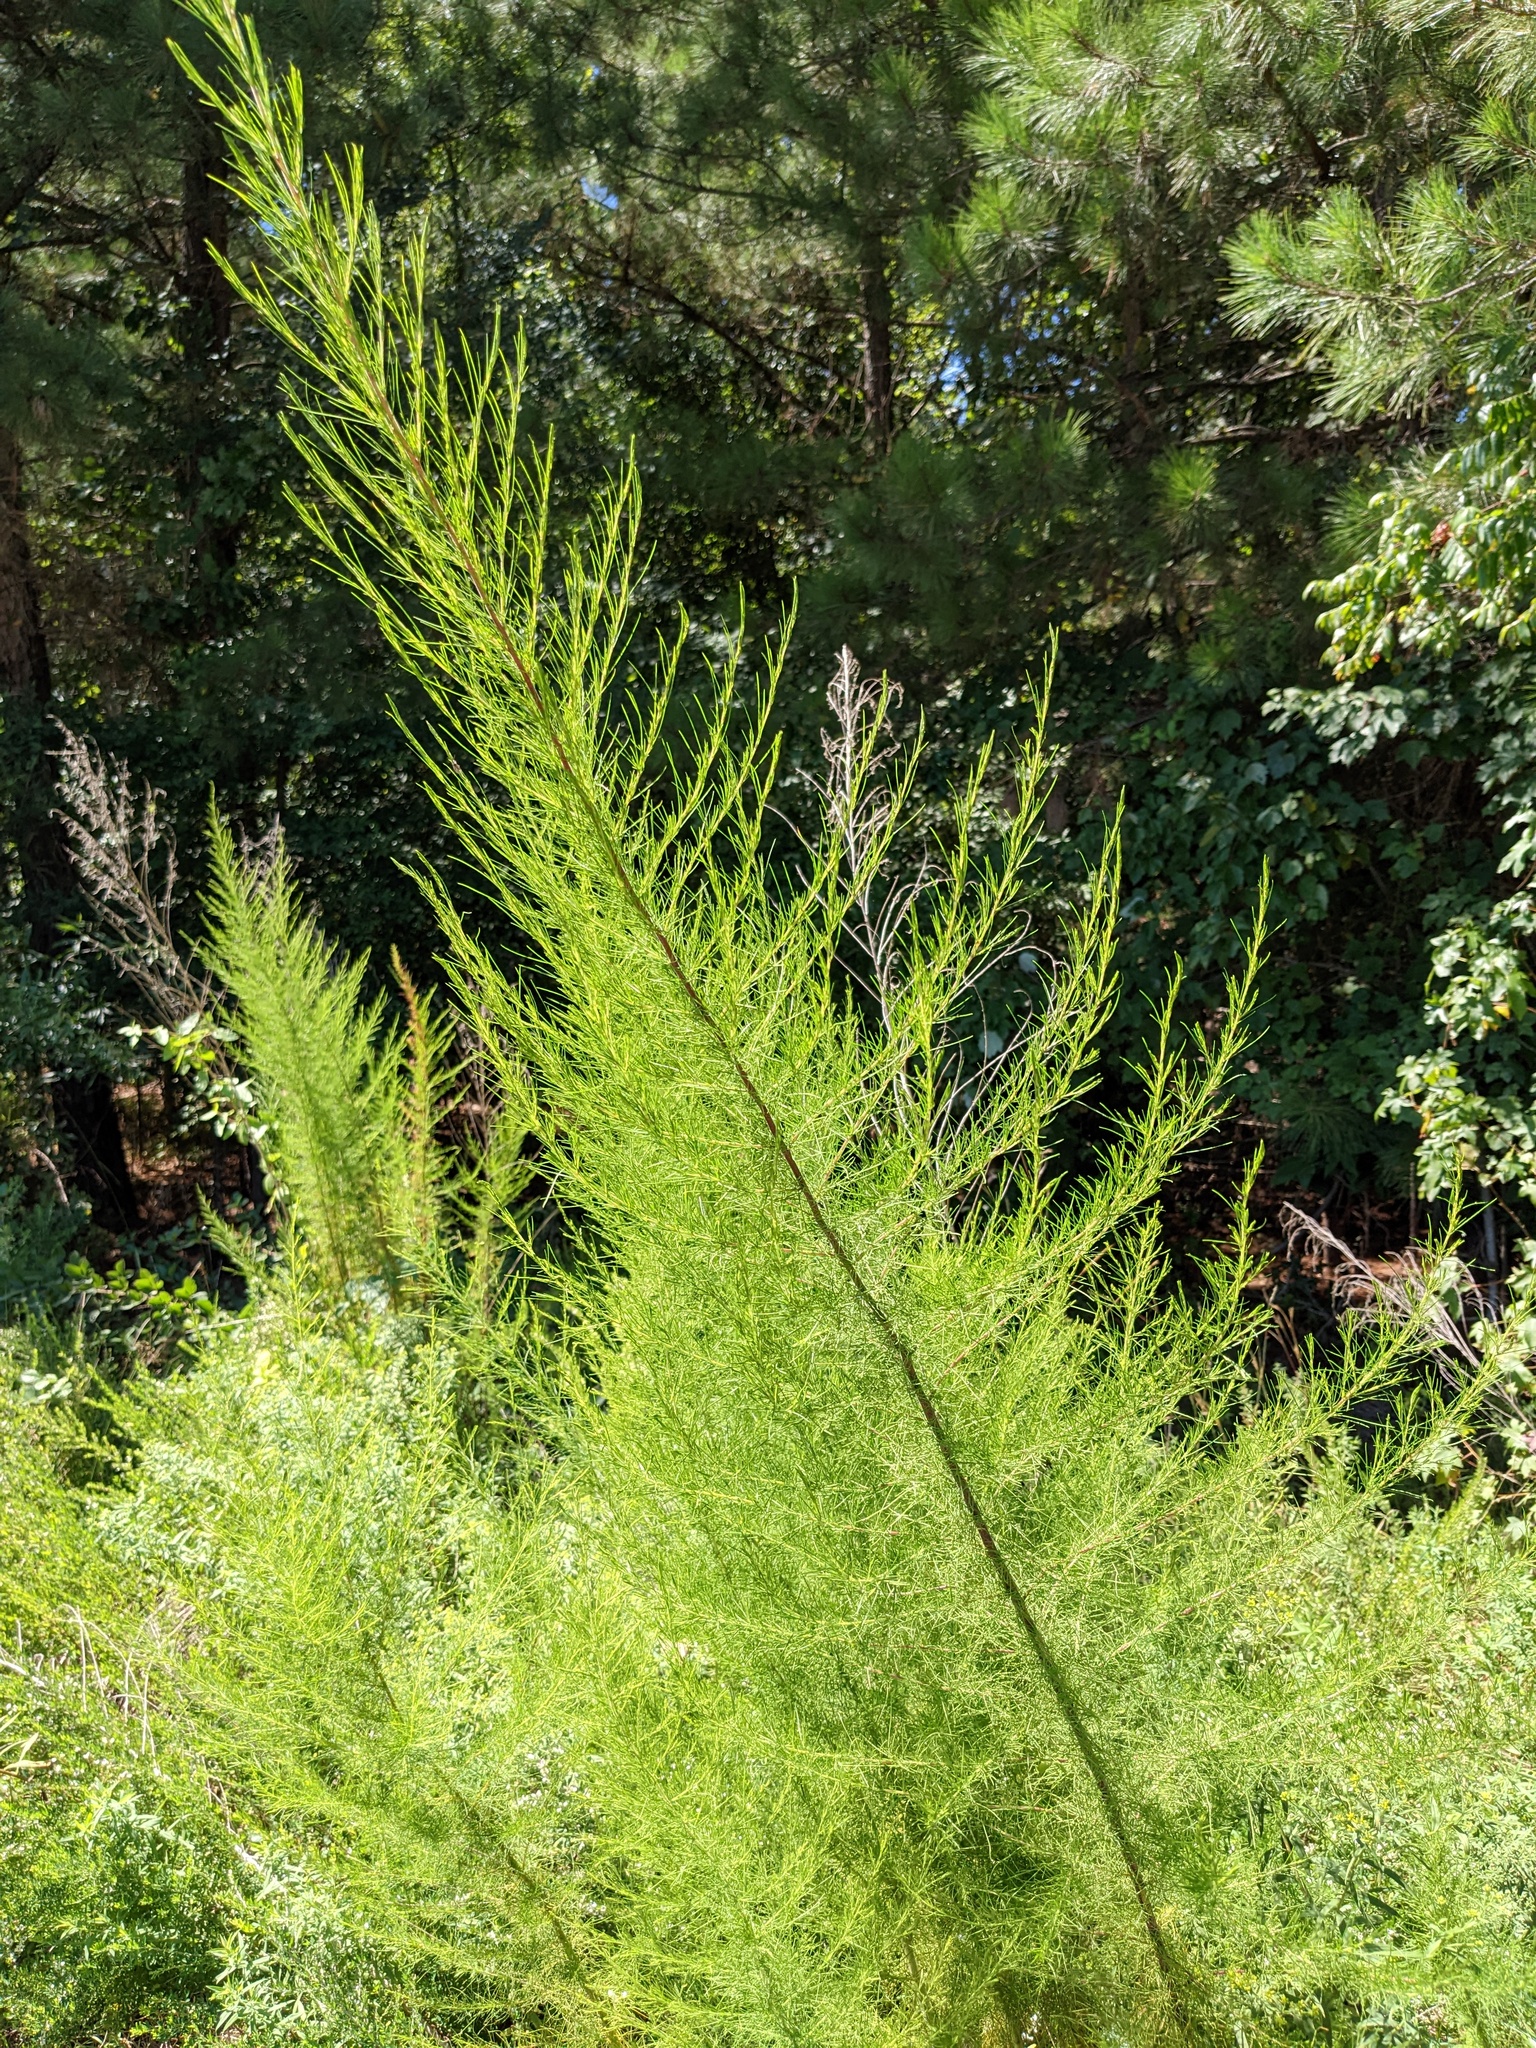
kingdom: Plantae
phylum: Tracheophyta
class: Magnoliopsida
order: Asterales
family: Asteraceae
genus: Eupatorium
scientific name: Eupatorium capillifolium
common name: Dog-fennel
